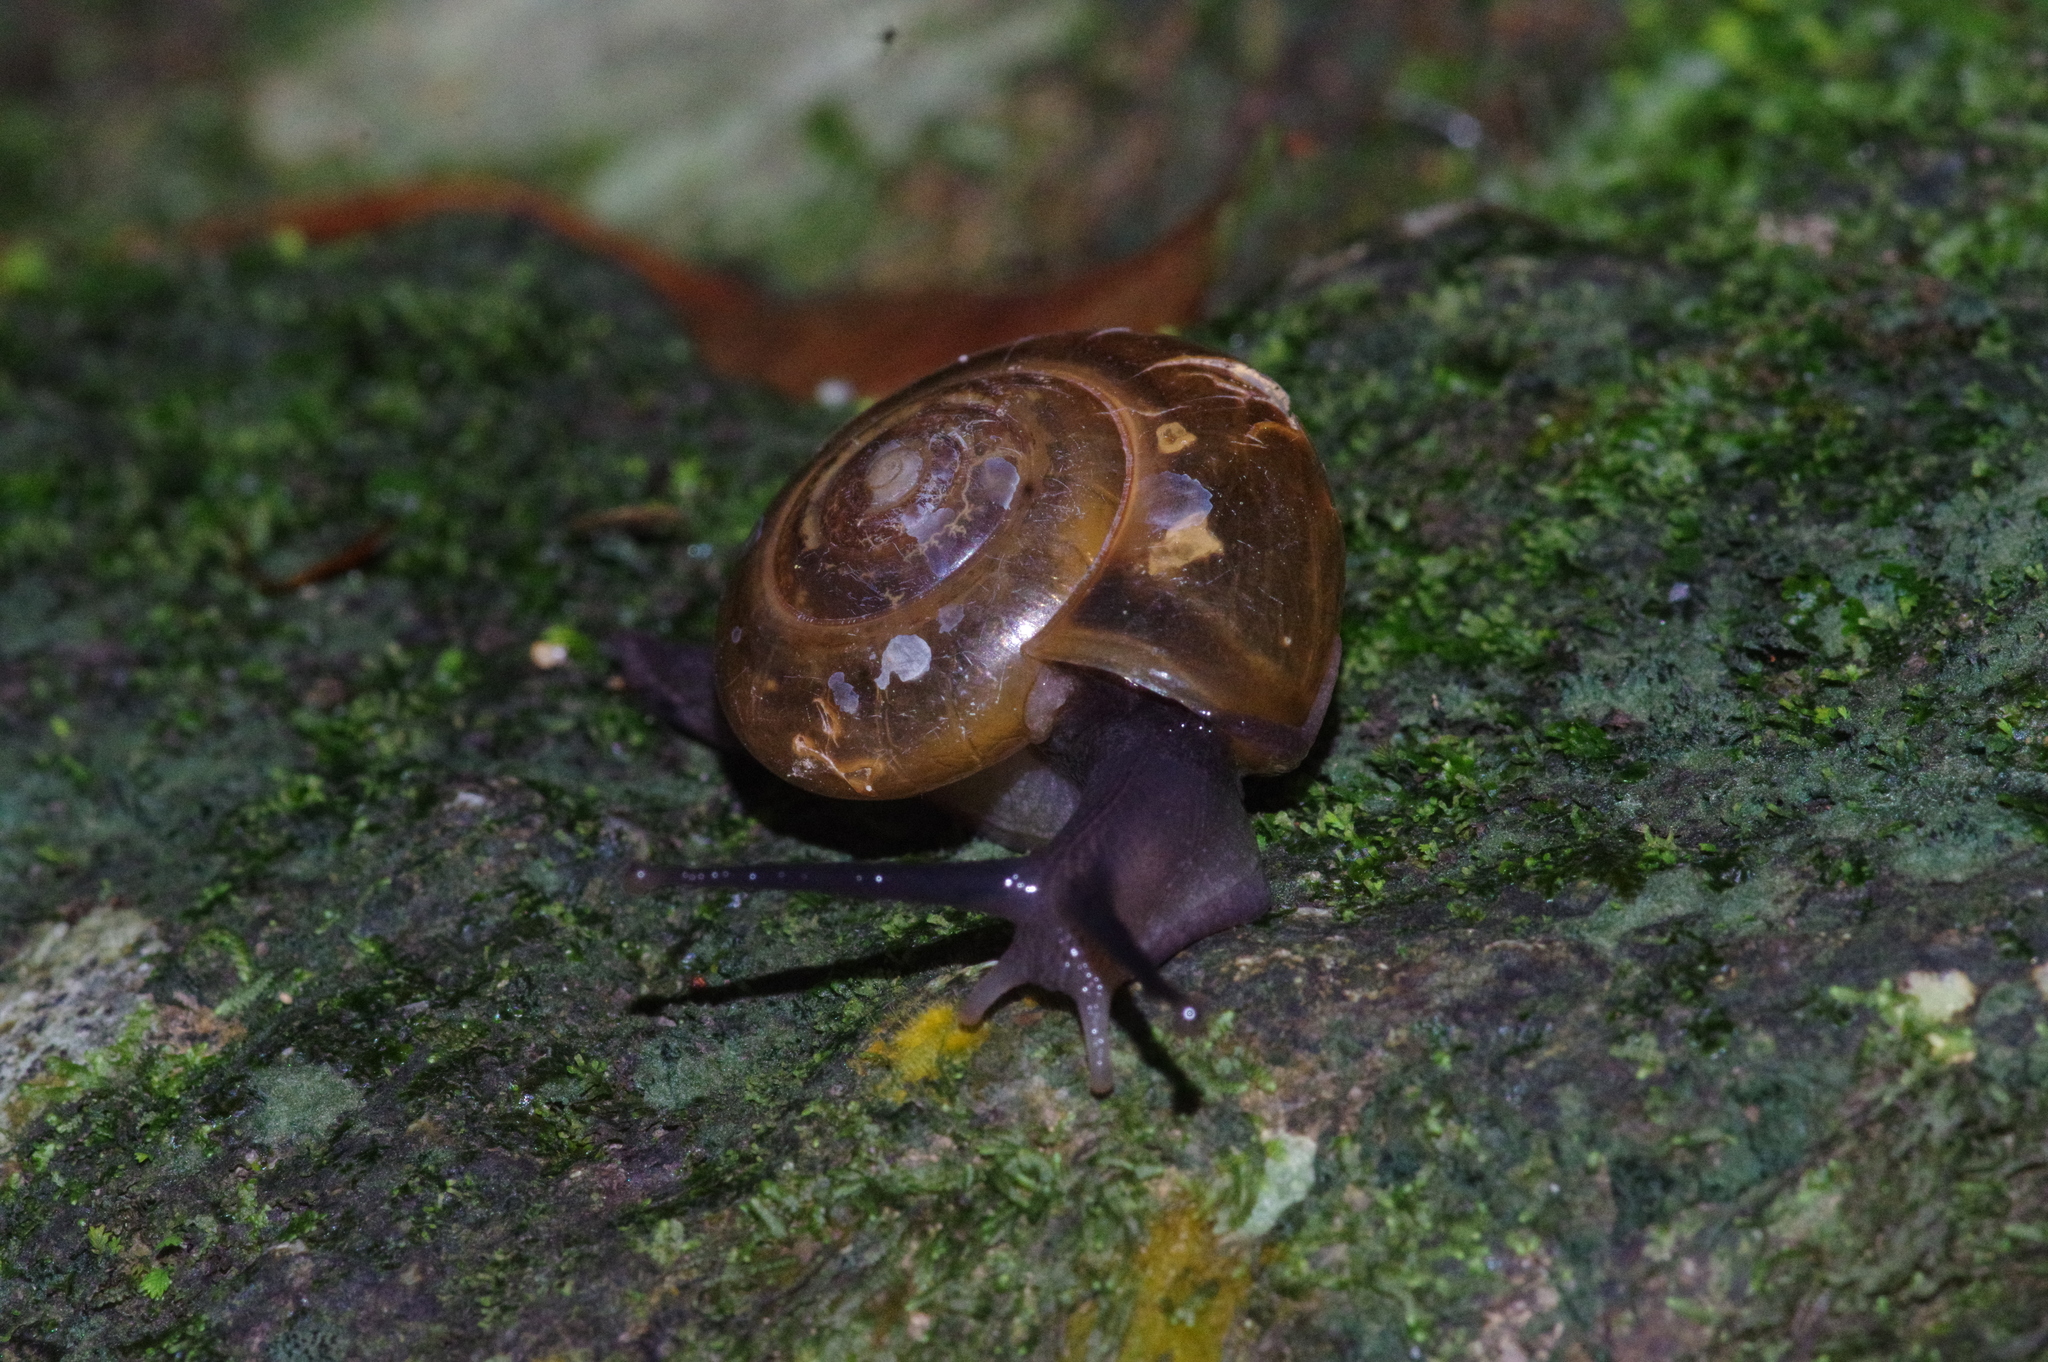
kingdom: Animalia
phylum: Mollusca
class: Gastropoda
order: Stylommatophora
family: Ariophantidae
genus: Macrochlamys
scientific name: Macrochlamys indica
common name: Horntail snail
